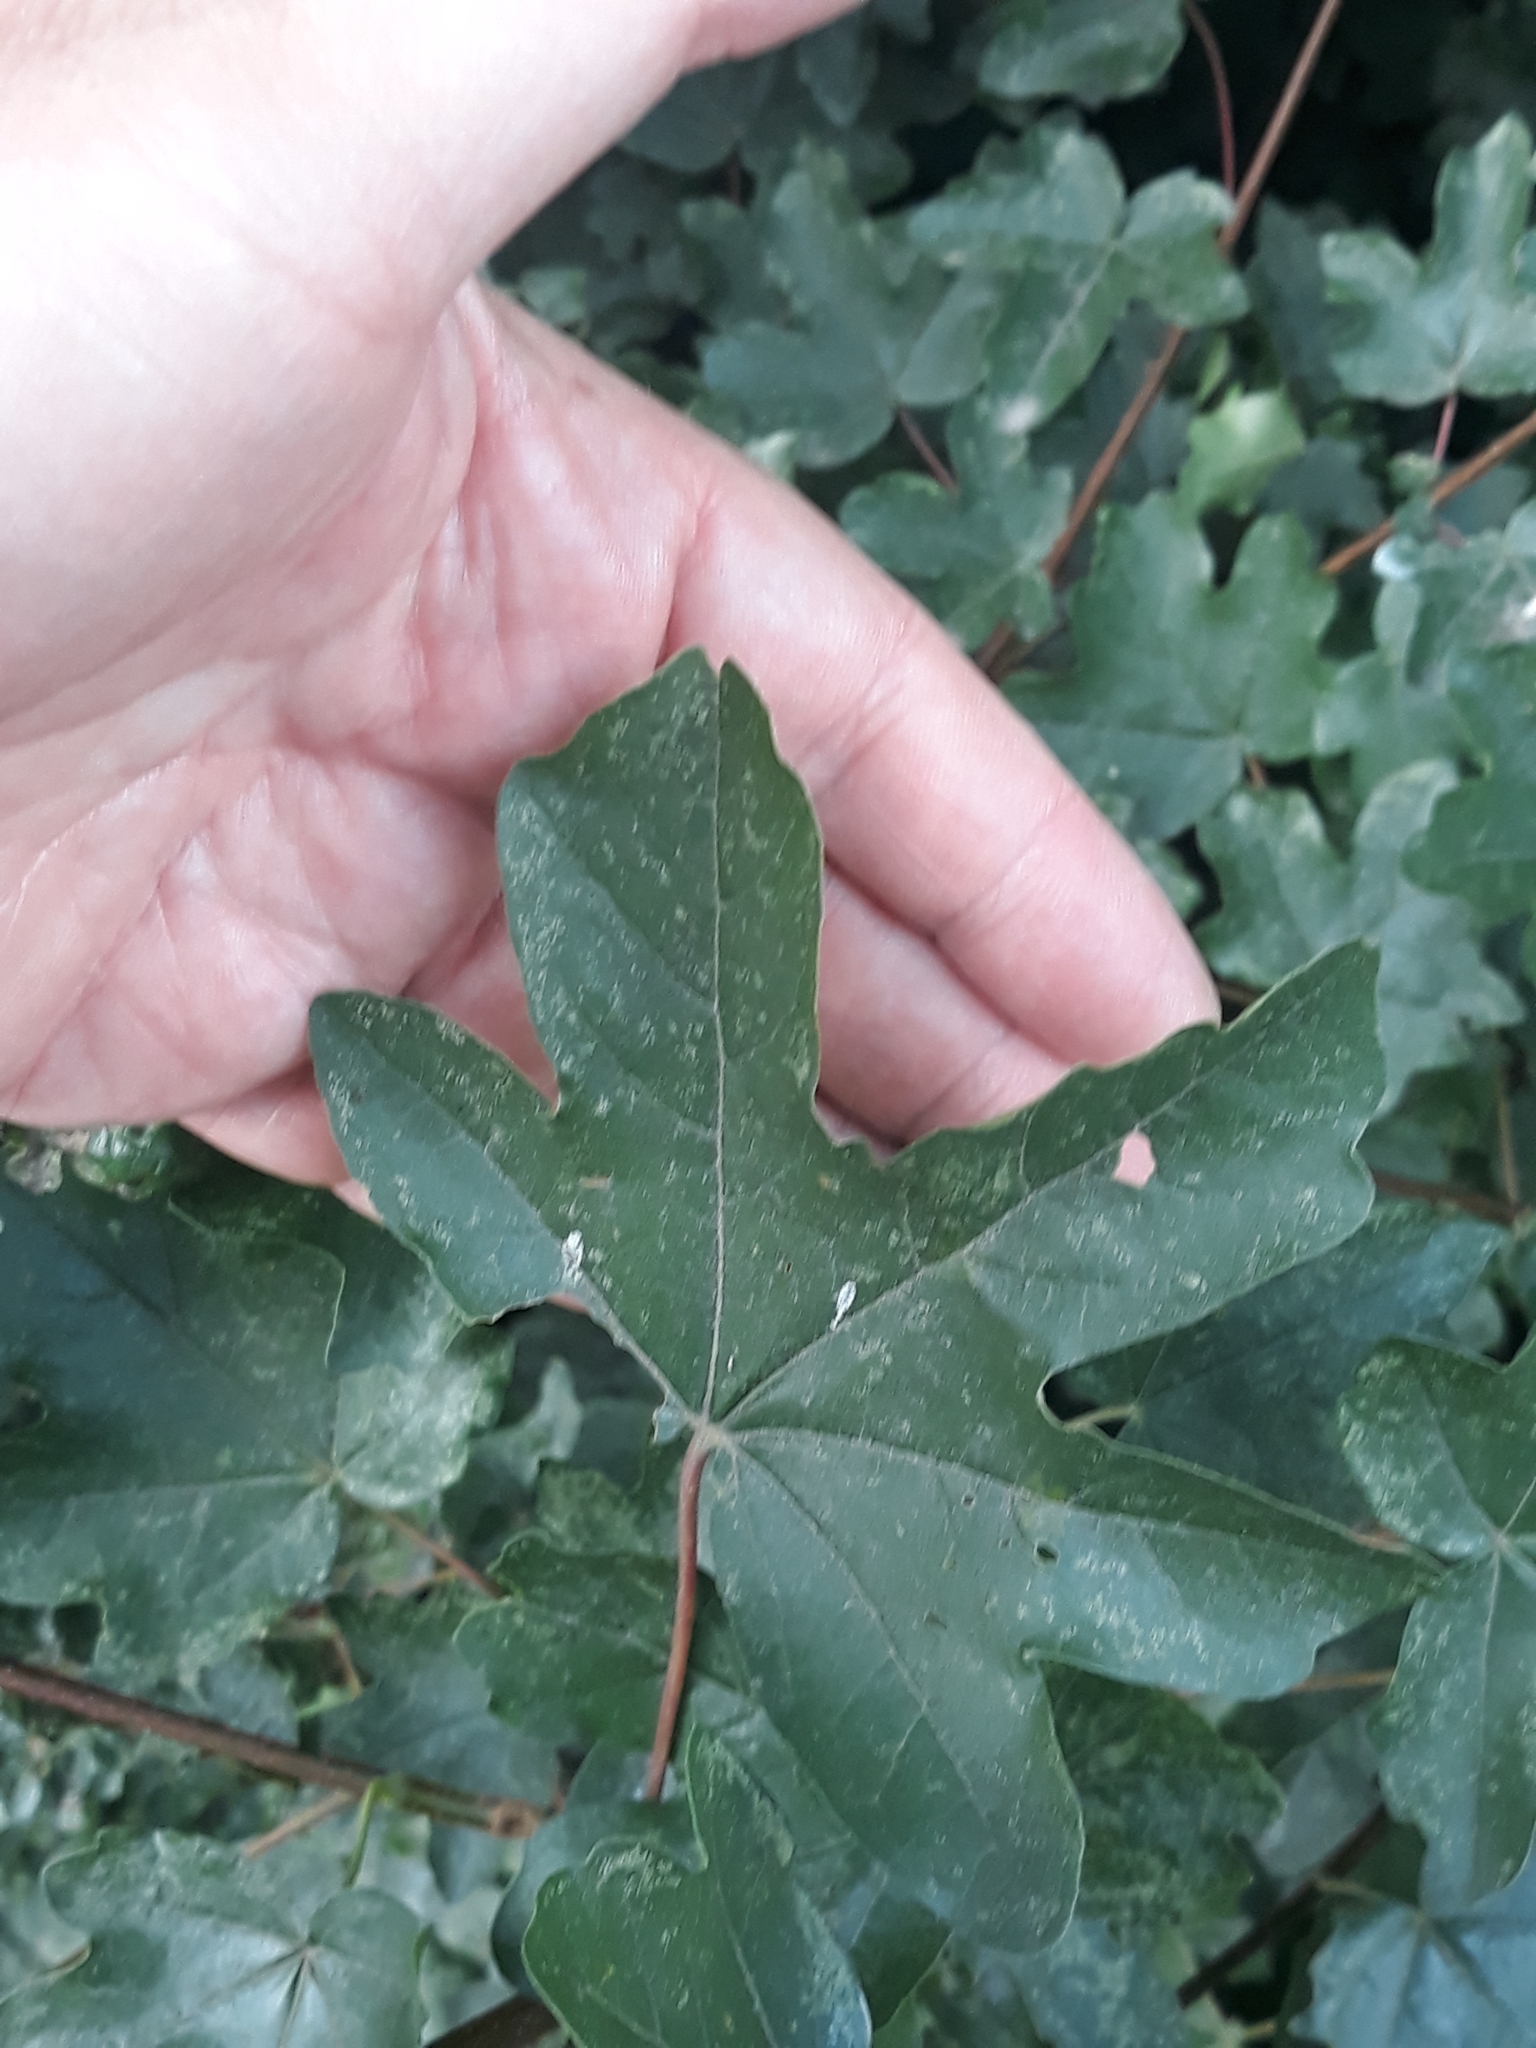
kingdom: Plantae
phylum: Tracheophyta
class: Magnoliopsida
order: Sapindales
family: Sapindaceae
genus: Acer
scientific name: Acer campestre
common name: Field maple
